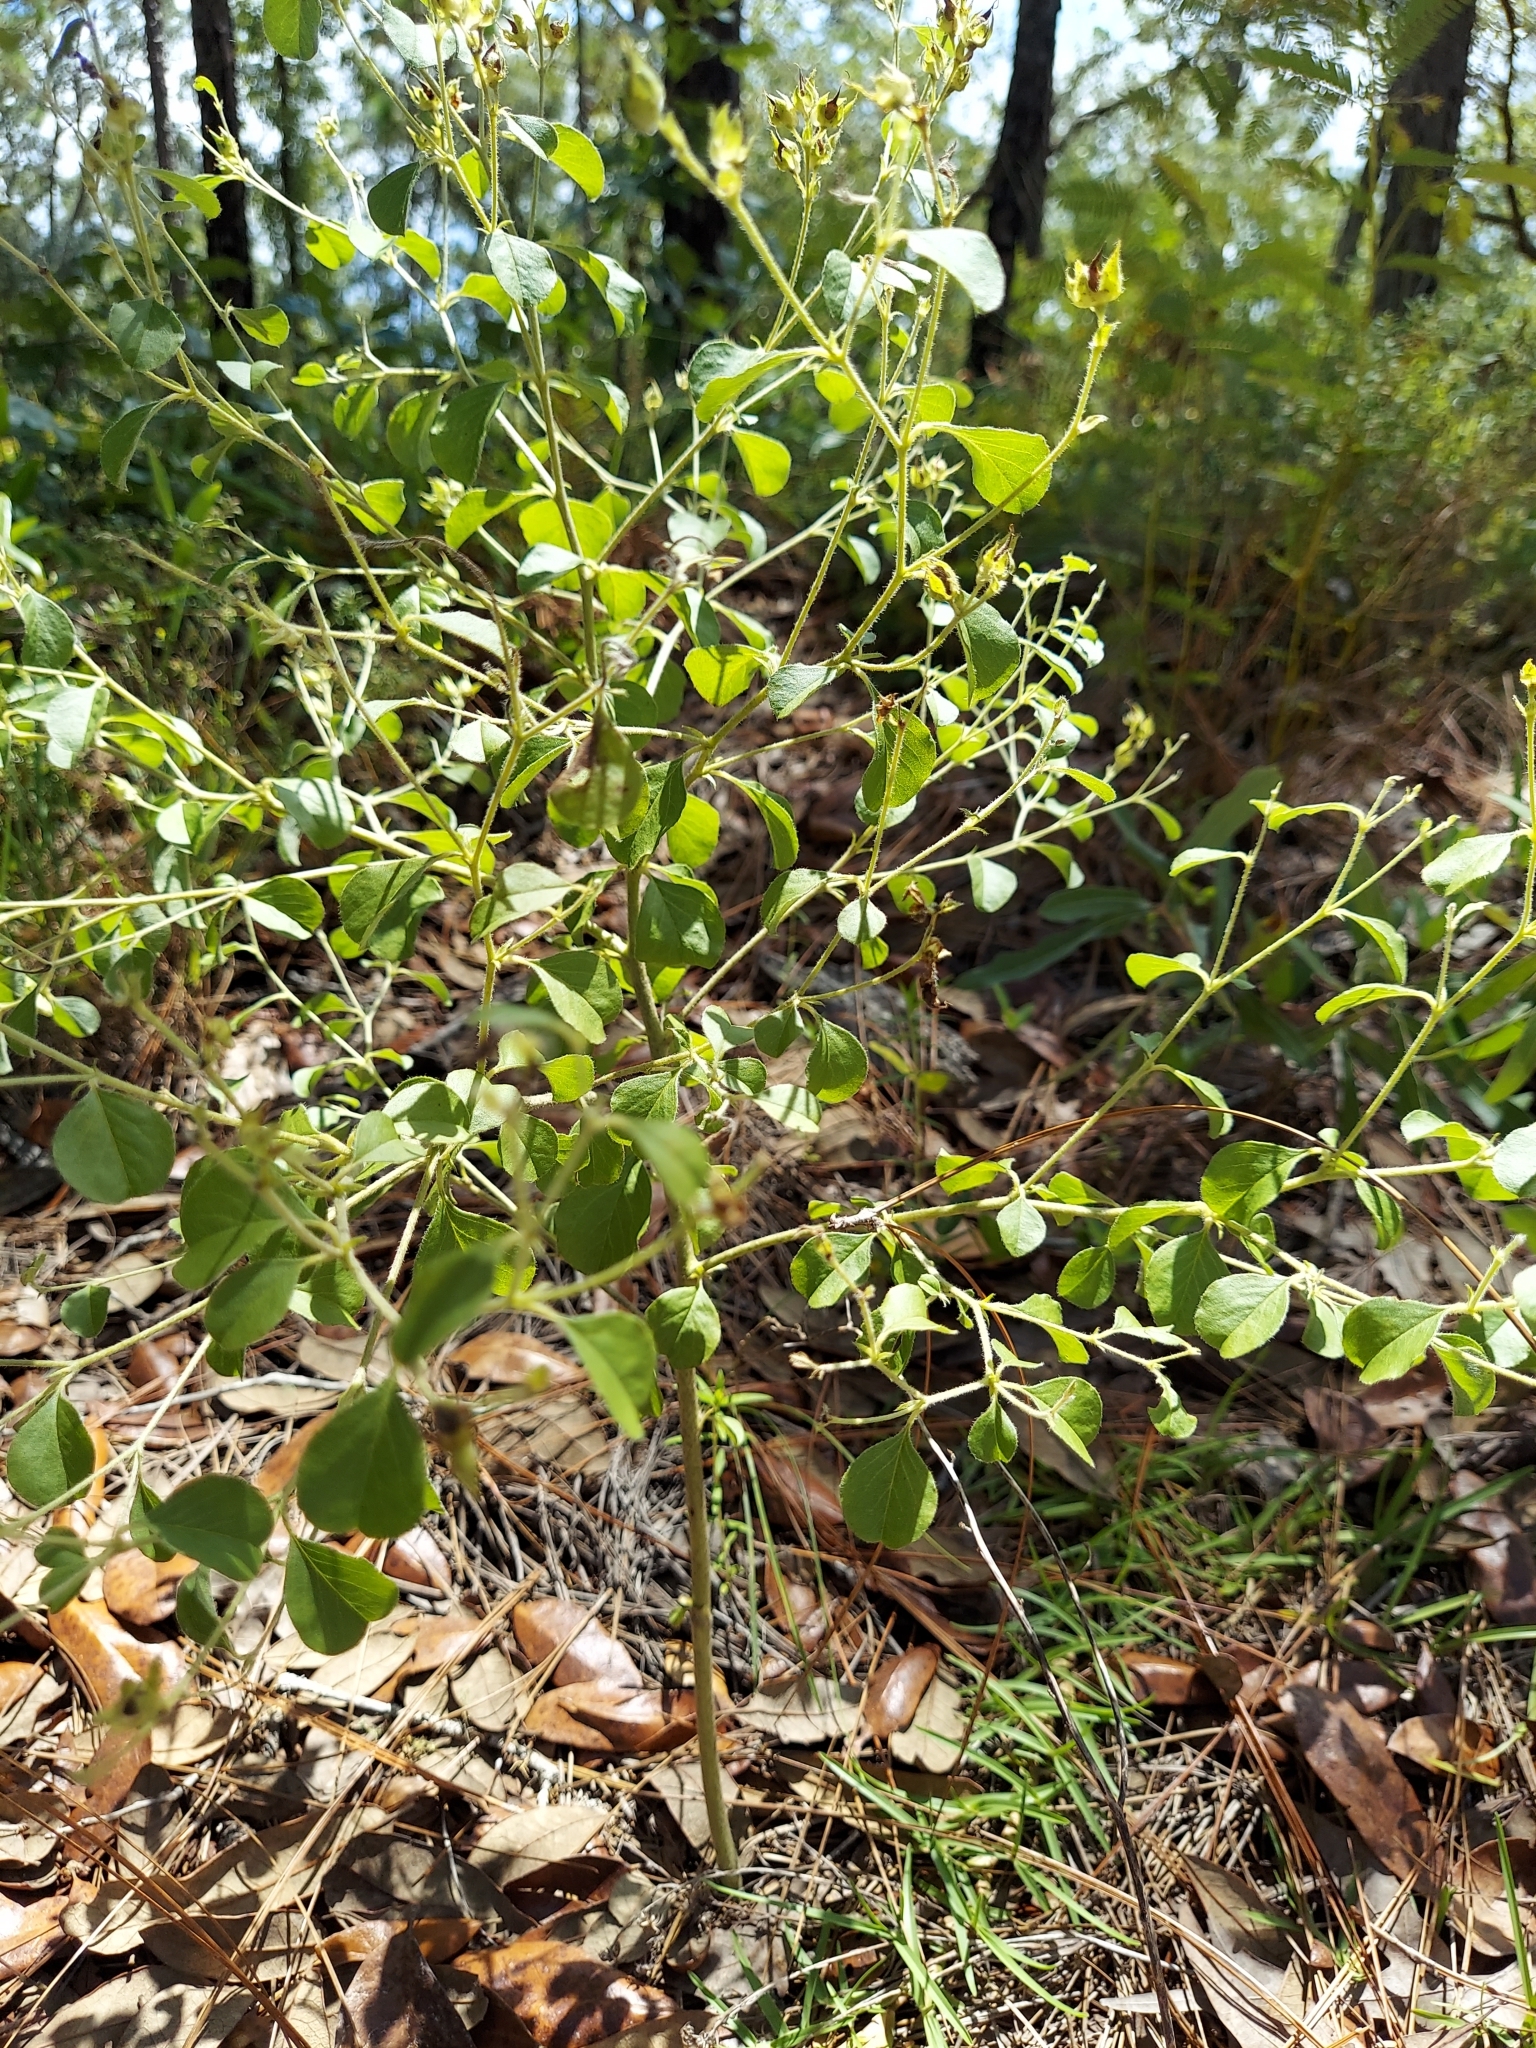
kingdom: Plantae
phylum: Tracheophyta
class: Magnoliopsida
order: Fabales
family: Fabaceae
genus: Pediomelum
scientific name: Pediomelum canescens
